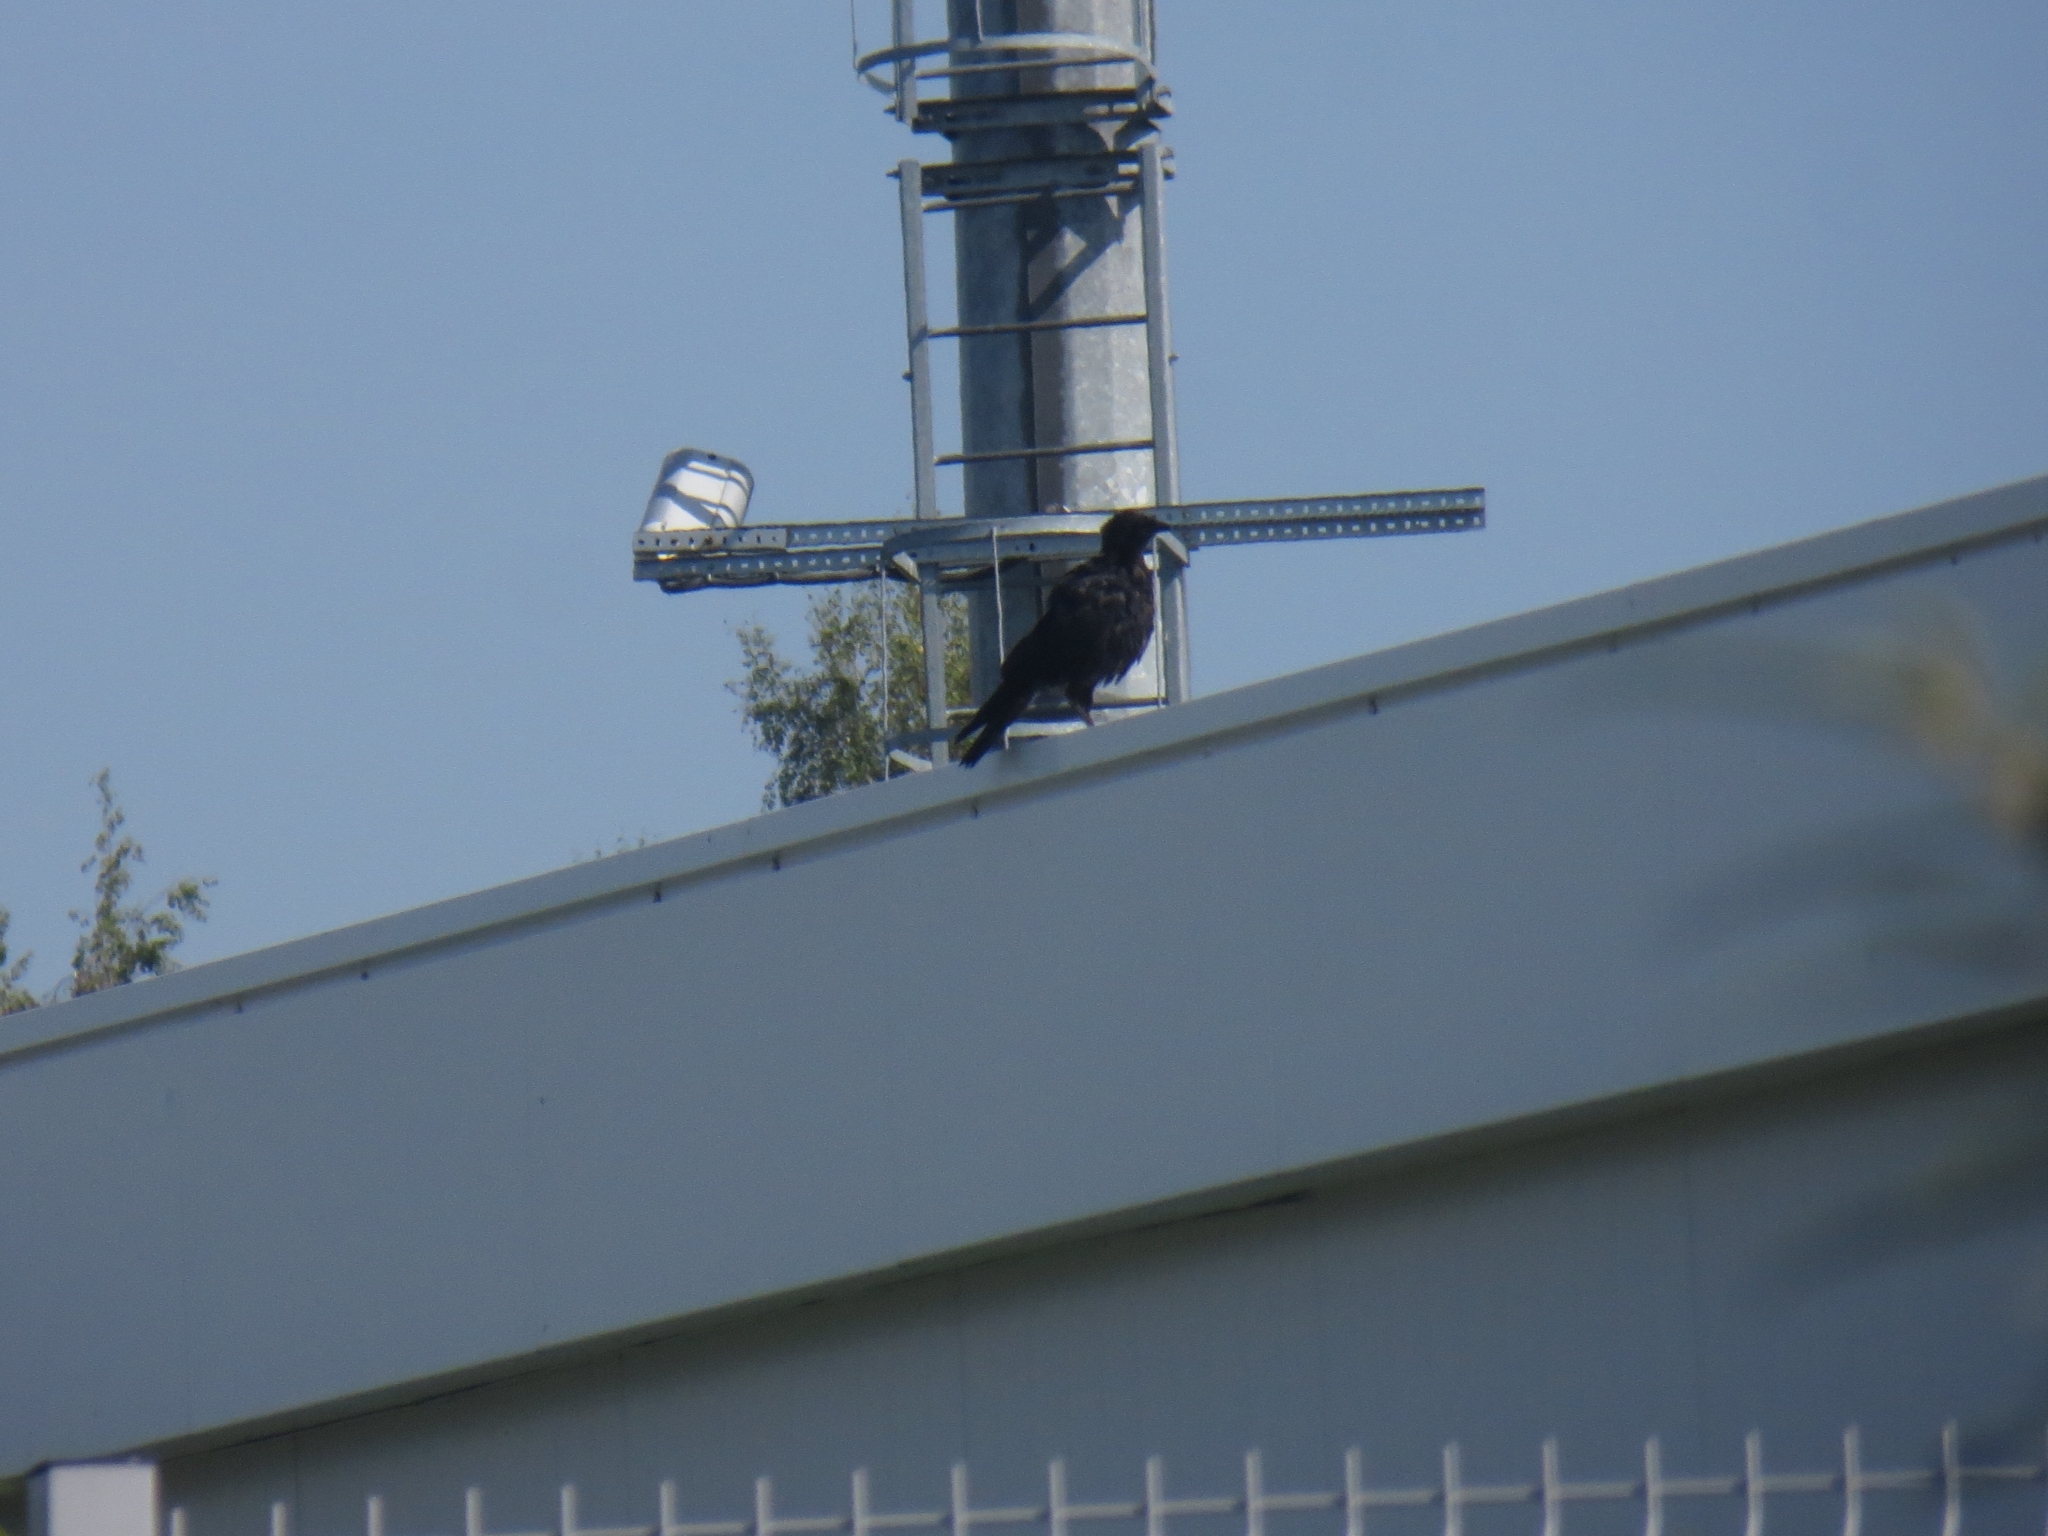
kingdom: Animalia
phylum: Chordata
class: Aves
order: Passeriformes
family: Corvidae
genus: Corvus
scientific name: Corvus frugilegus
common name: Rook
